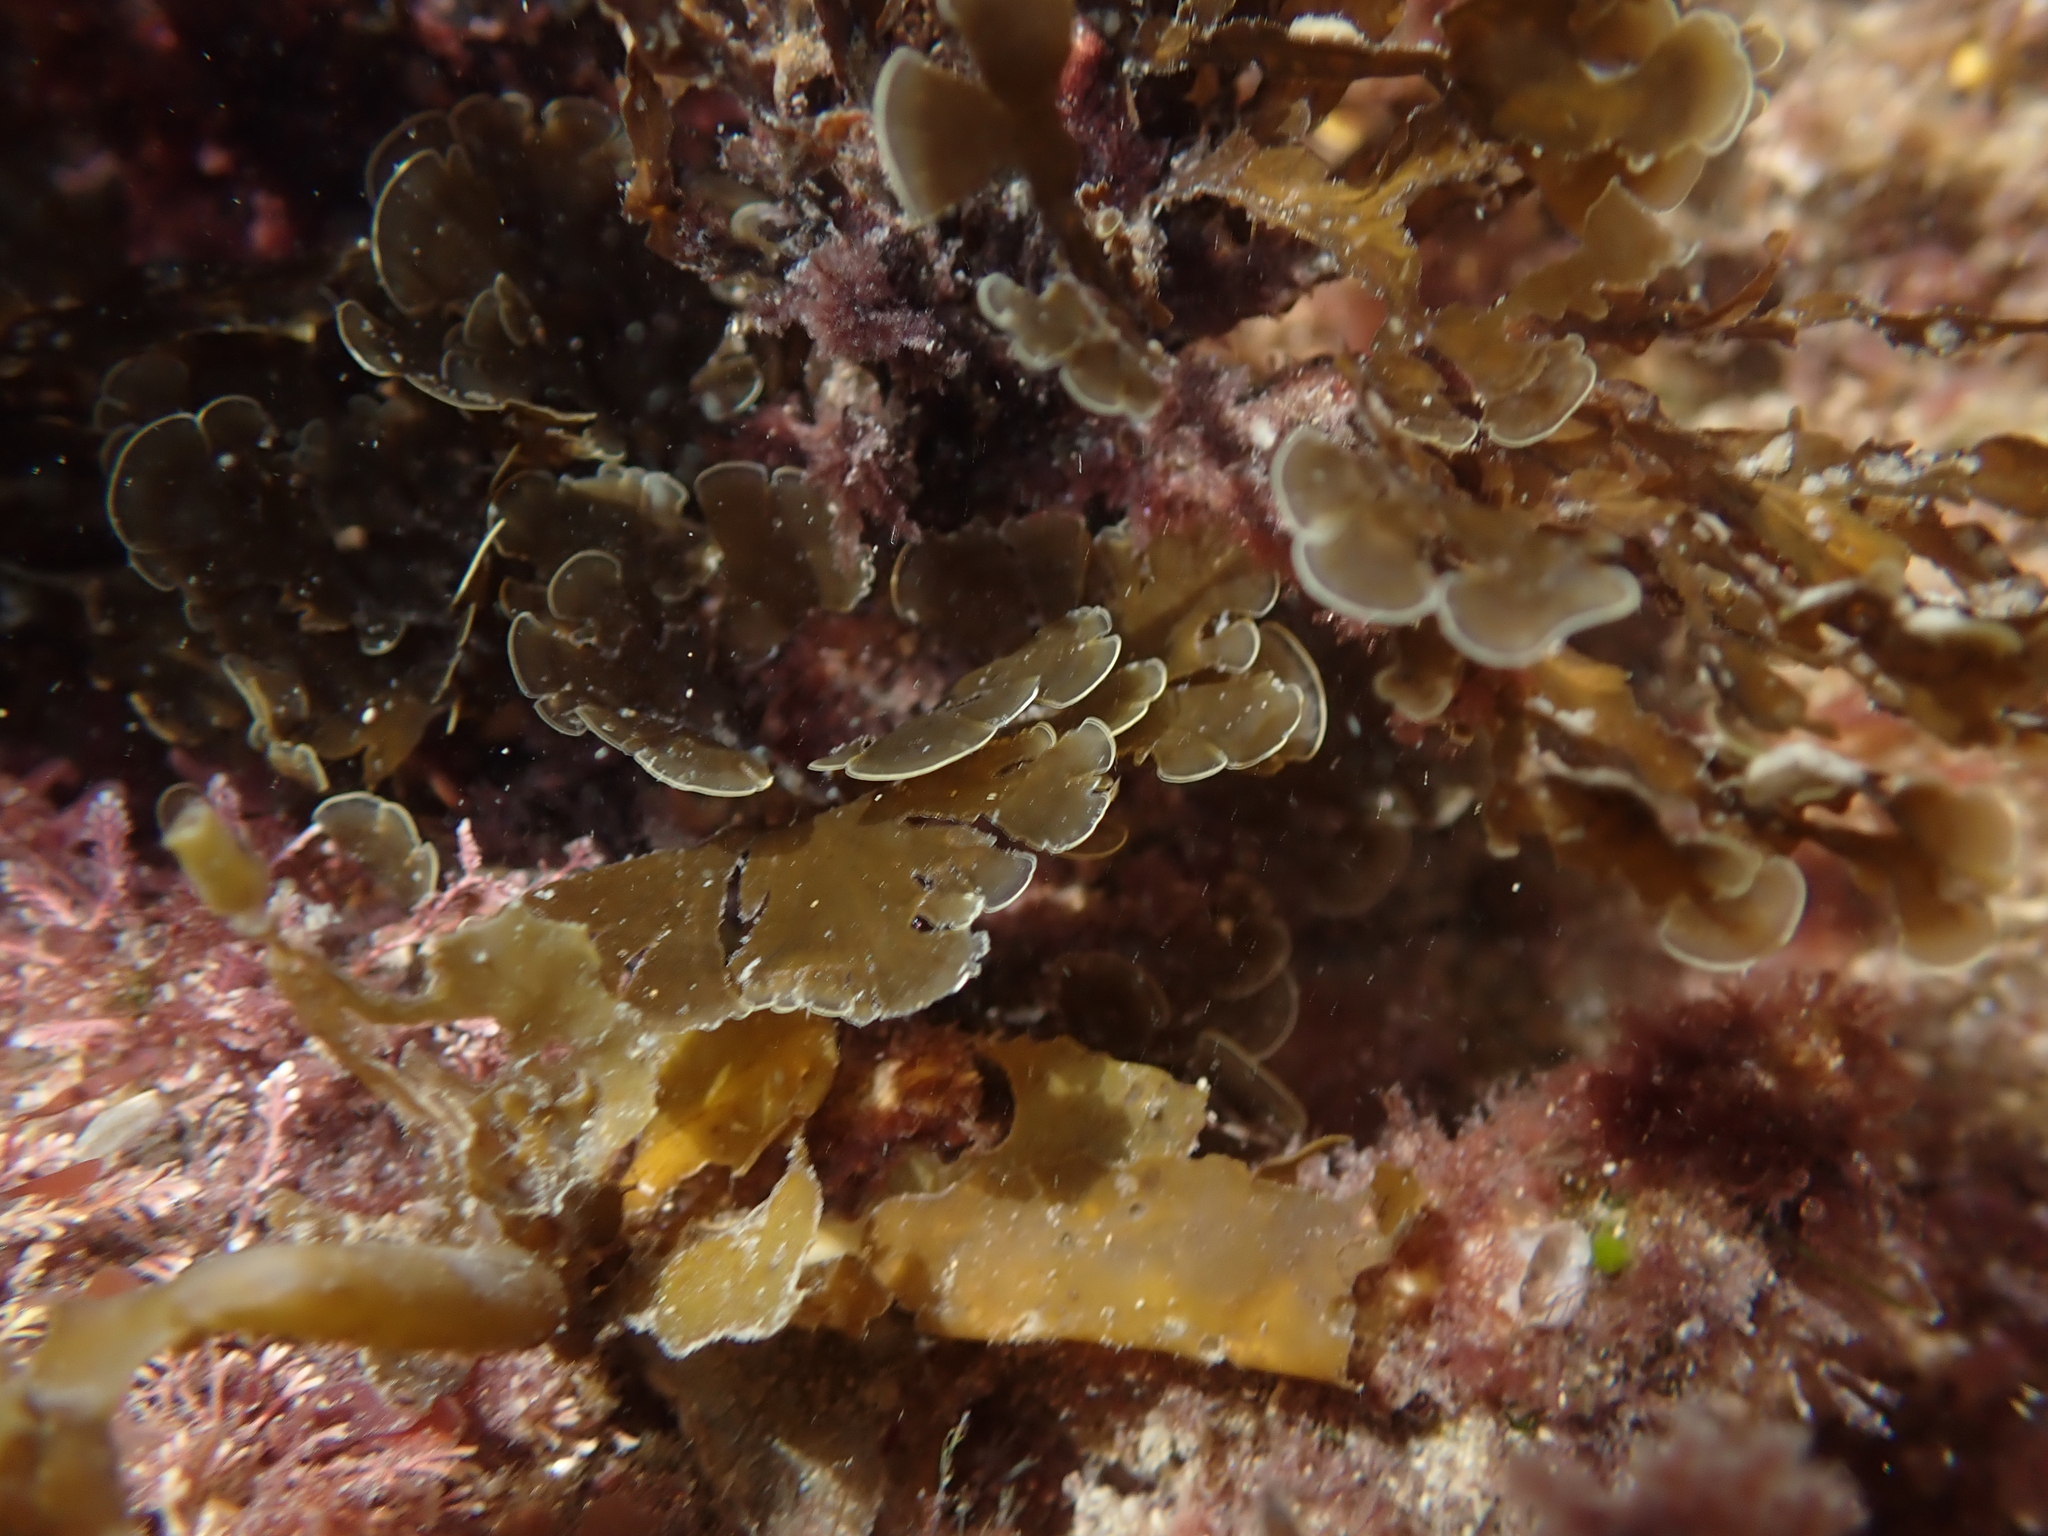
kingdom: Chromista
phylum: Ochrophyta
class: Phaeophyceae
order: Dictyotales
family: Dictyotaceae
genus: Zonaria
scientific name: Zonaria aureomarginata
